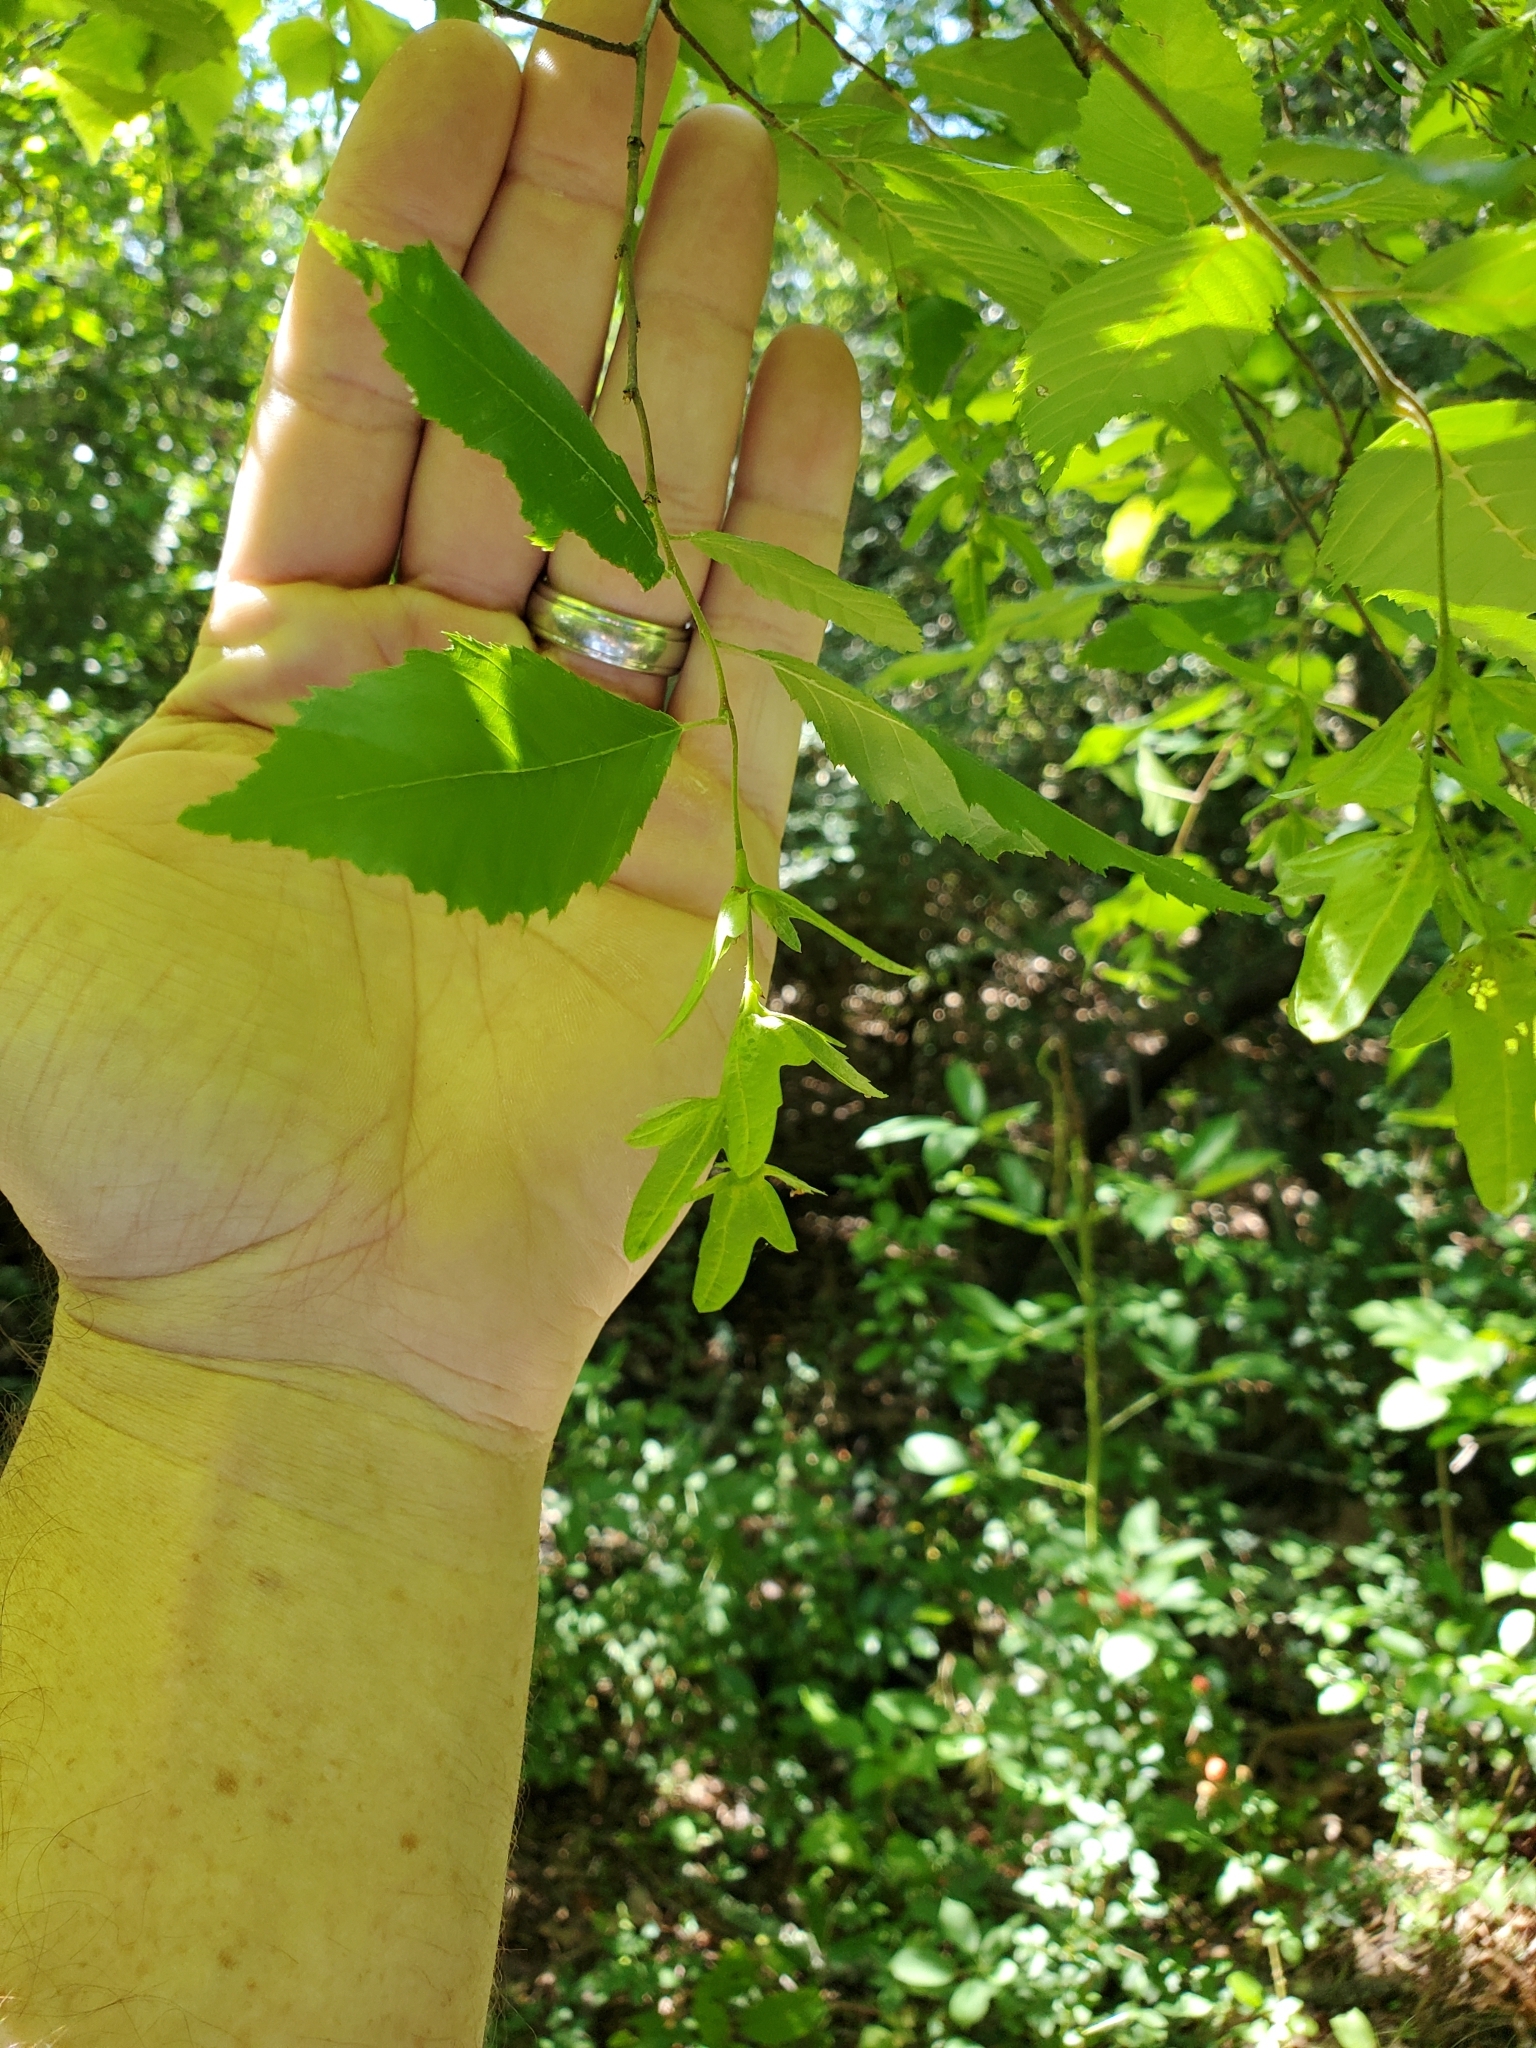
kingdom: Plantae
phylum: Tracheophyta
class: Magnoliopsida
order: Fagales
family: Betulaceae
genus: Carpinus
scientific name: Carpinus caroliniana
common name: American hornbeam
